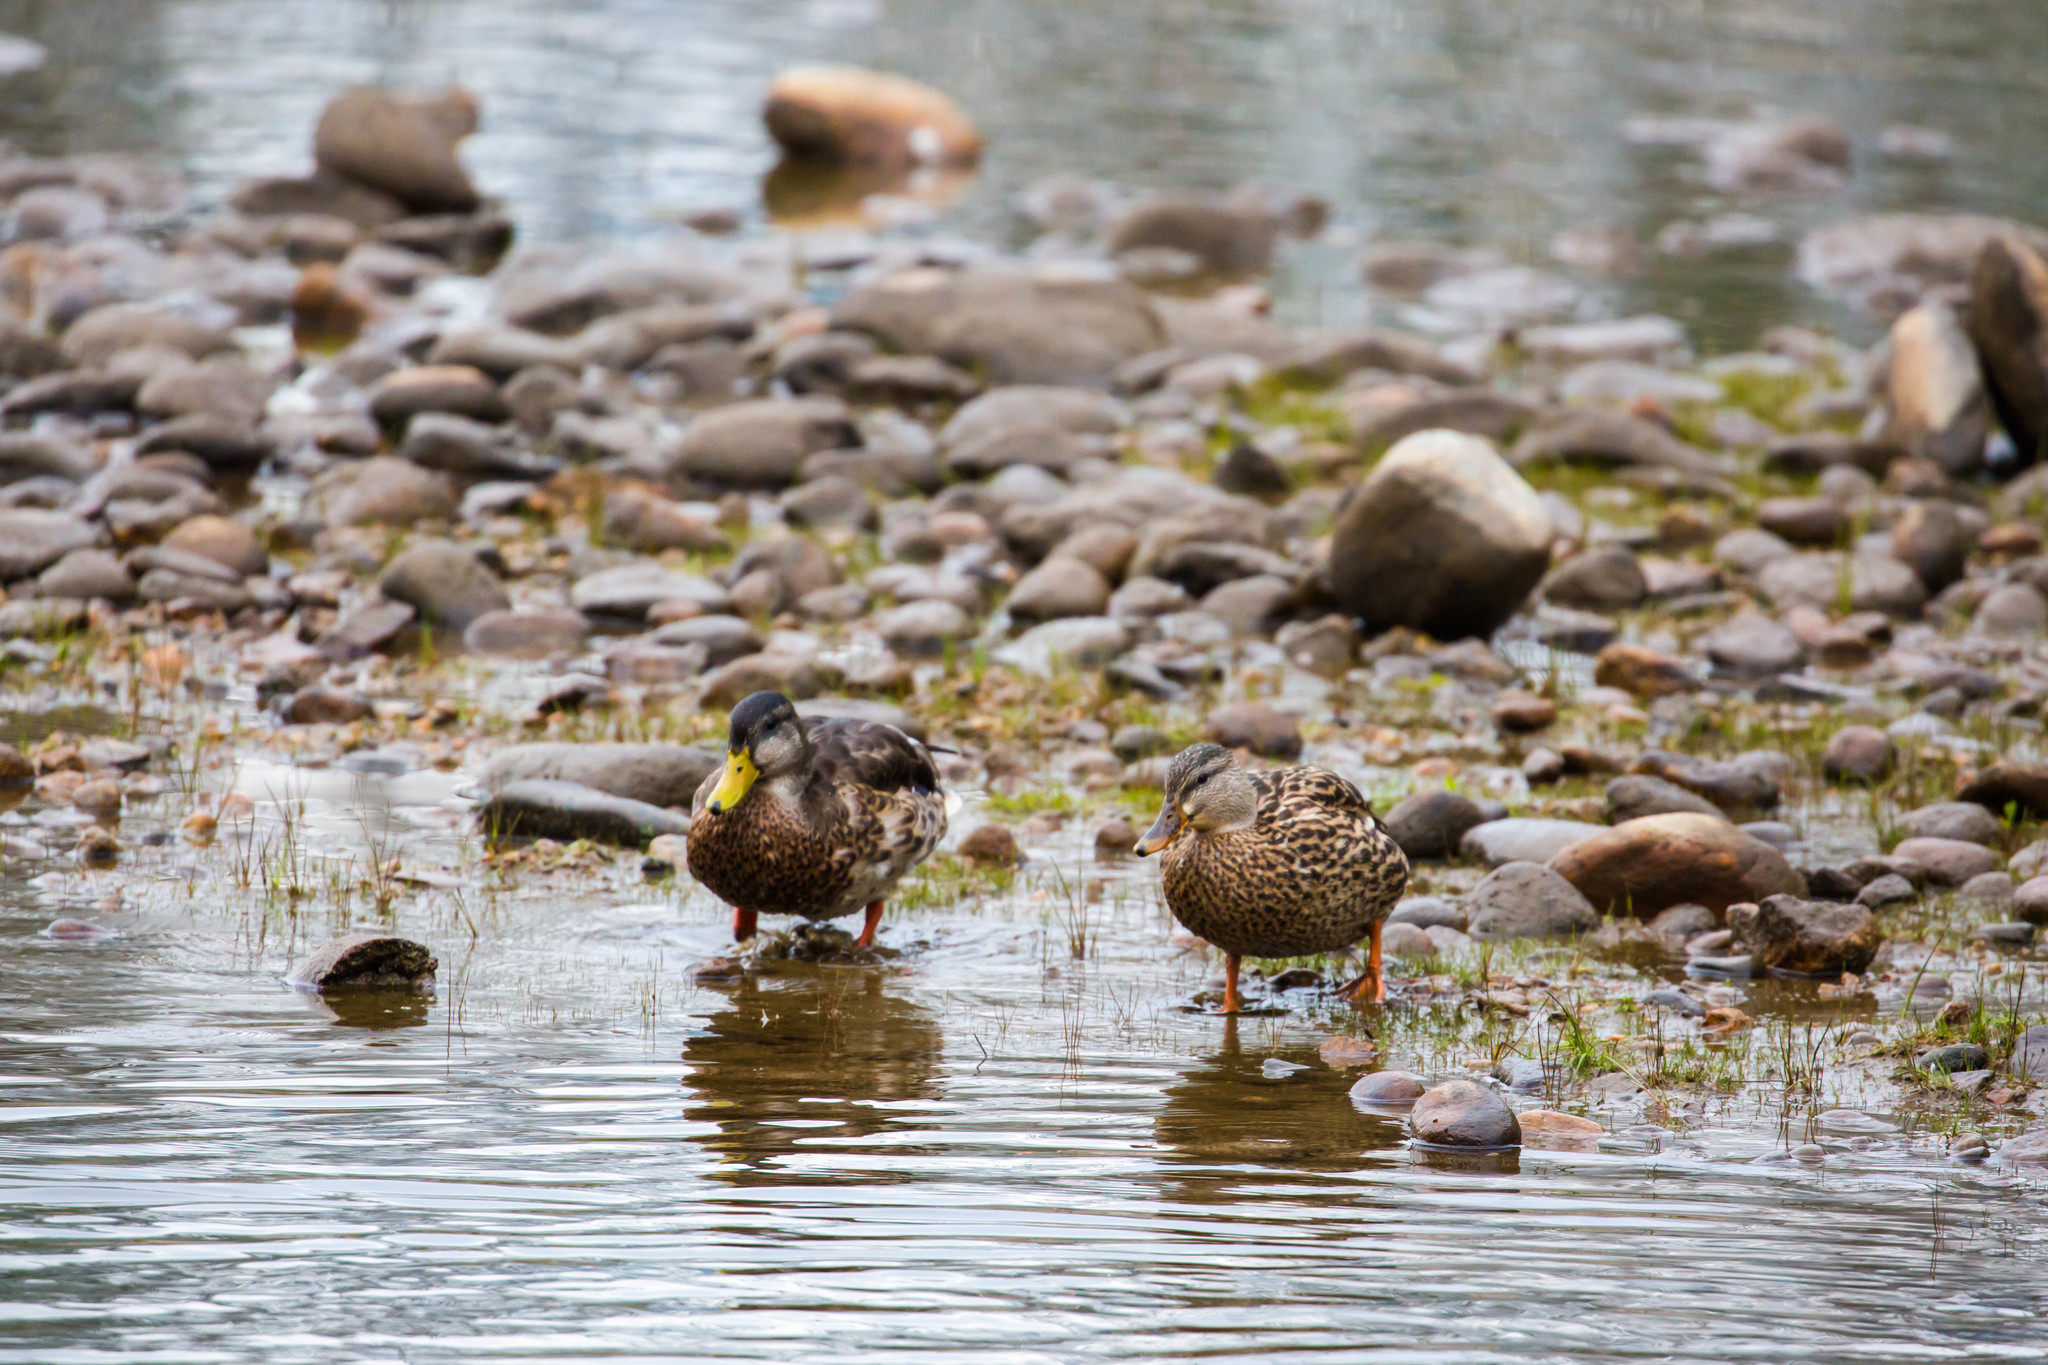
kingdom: Animalia
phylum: Chordata
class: Aves
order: Anseriformes
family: Anatidae
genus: Anas
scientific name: Anas platyrhynchos
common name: Mallard
